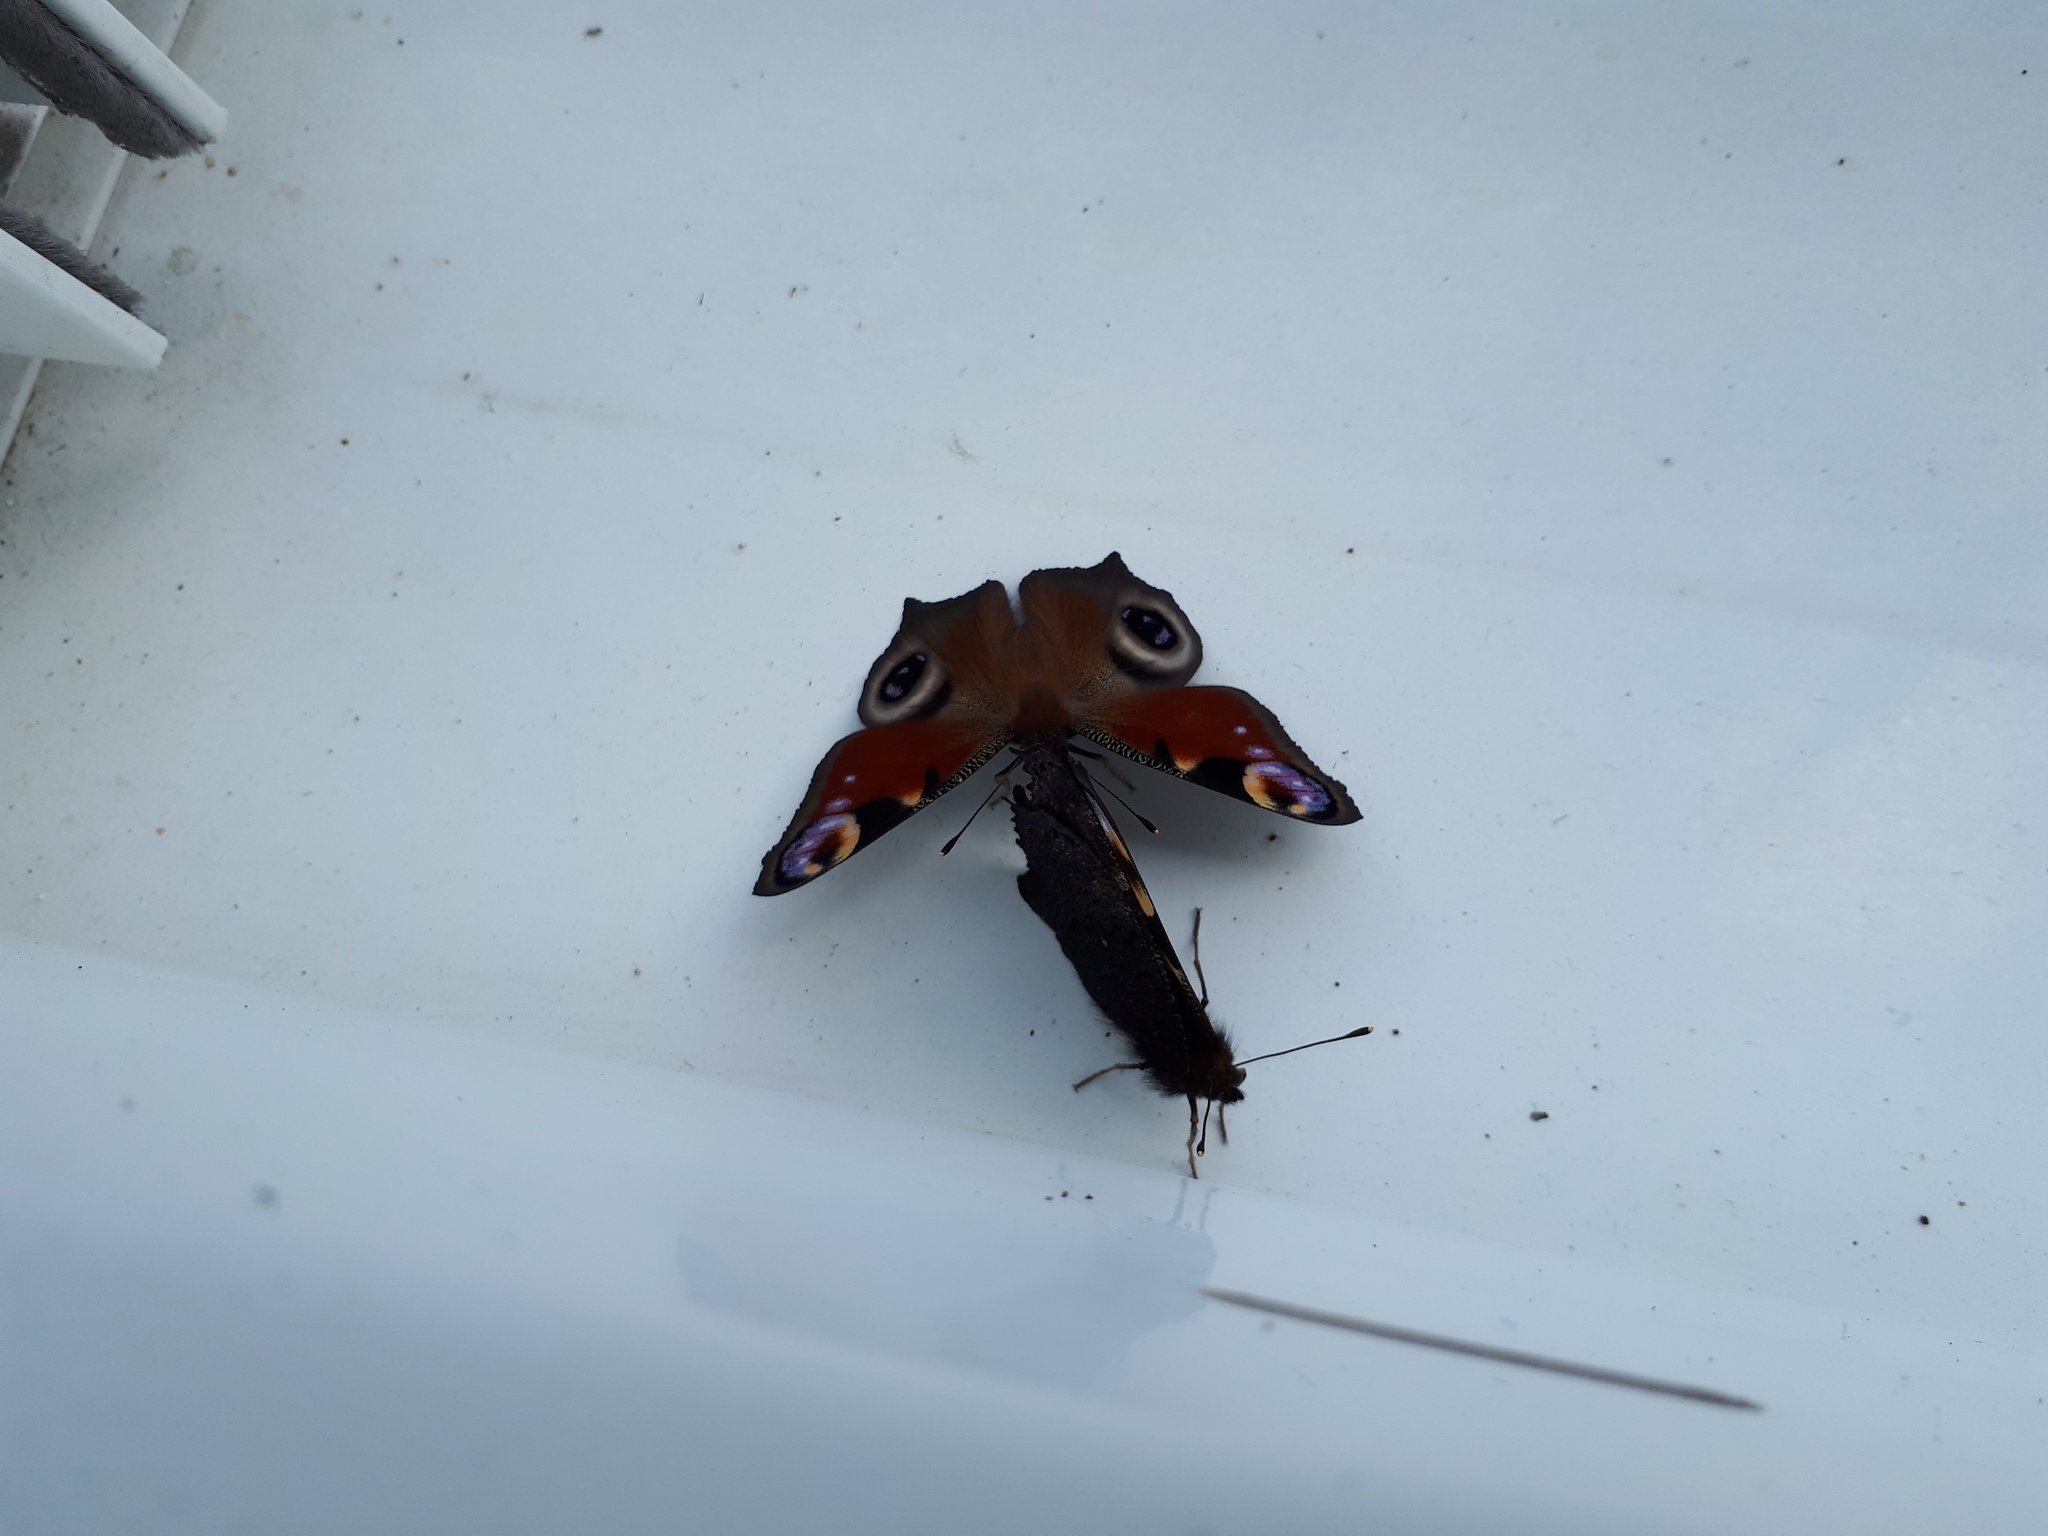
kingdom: Animalia
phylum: Arthropoda
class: Insecta
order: Lepidoptera
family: Nymphalidae
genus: Aglais
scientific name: Aglais io
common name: Peacock
